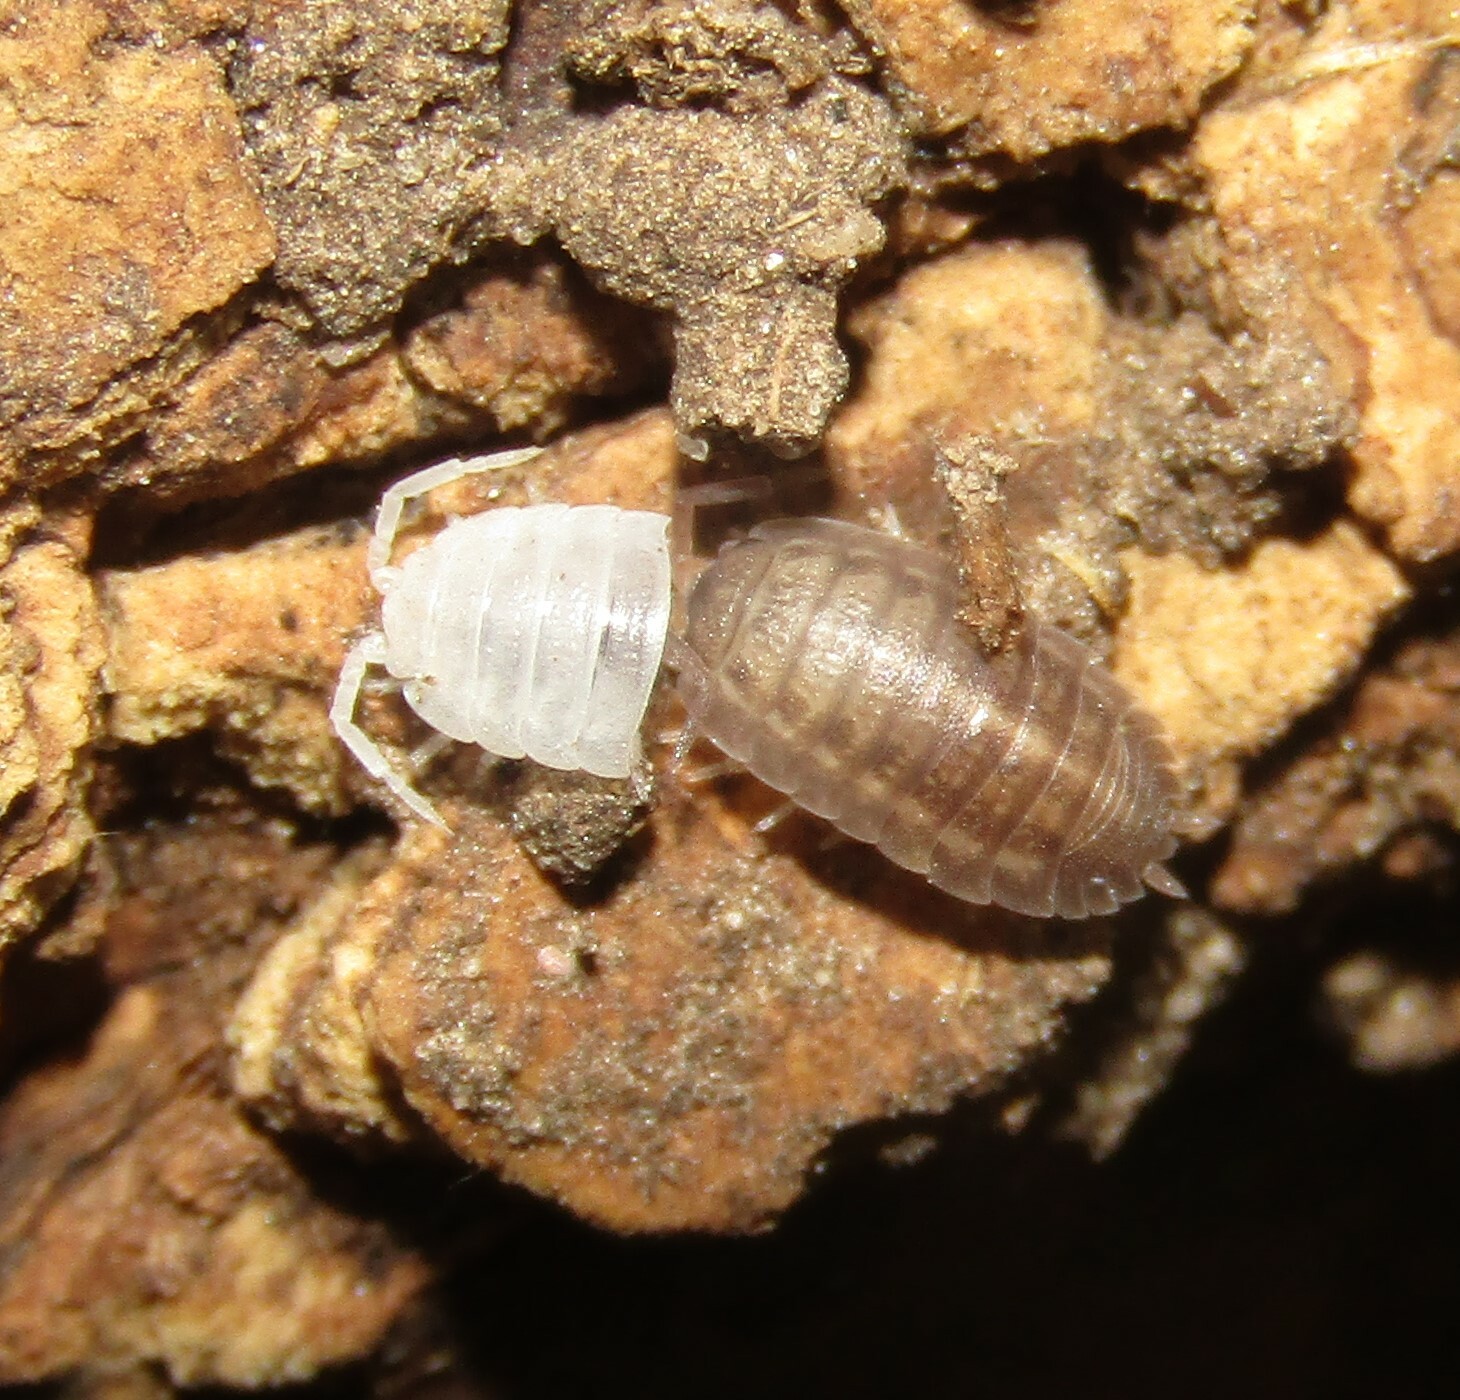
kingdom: Animalia
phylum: Arthropoda
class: Malacostraca
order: Isopoda
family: Trachelipodidae
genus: Trachelipus
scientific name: Trachelipus rathkii
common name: Isopod
